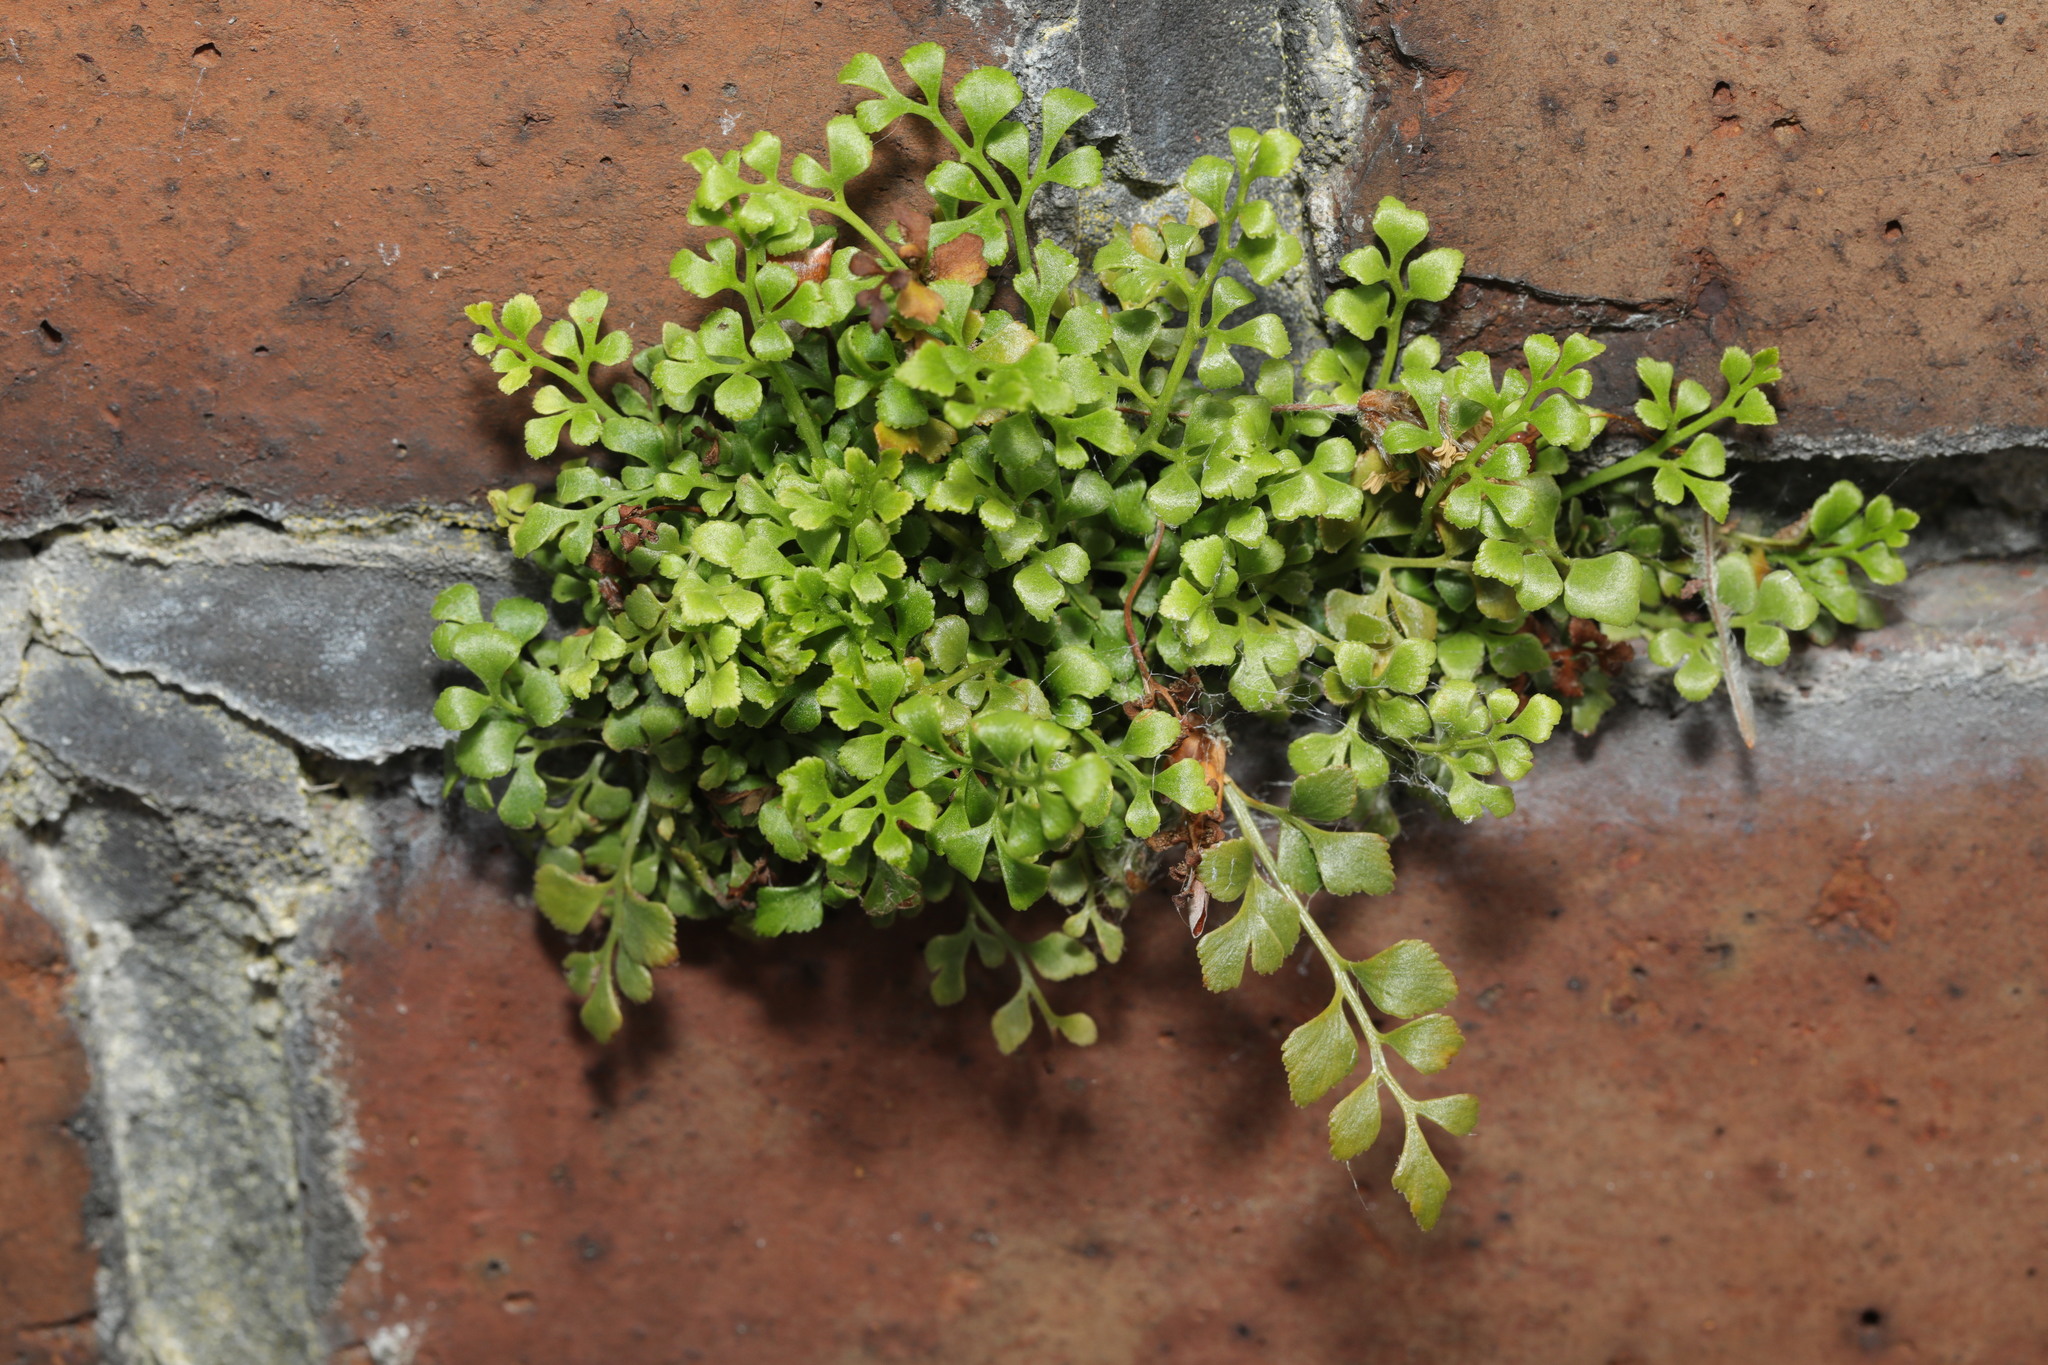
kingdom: Plantae
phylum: Tracheophyta
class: Polypodiopsida
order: Polypodiales
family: Aspleniaceae
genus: Asplenium
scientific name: Asplenium ruta-muraria
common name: Wall-rue
